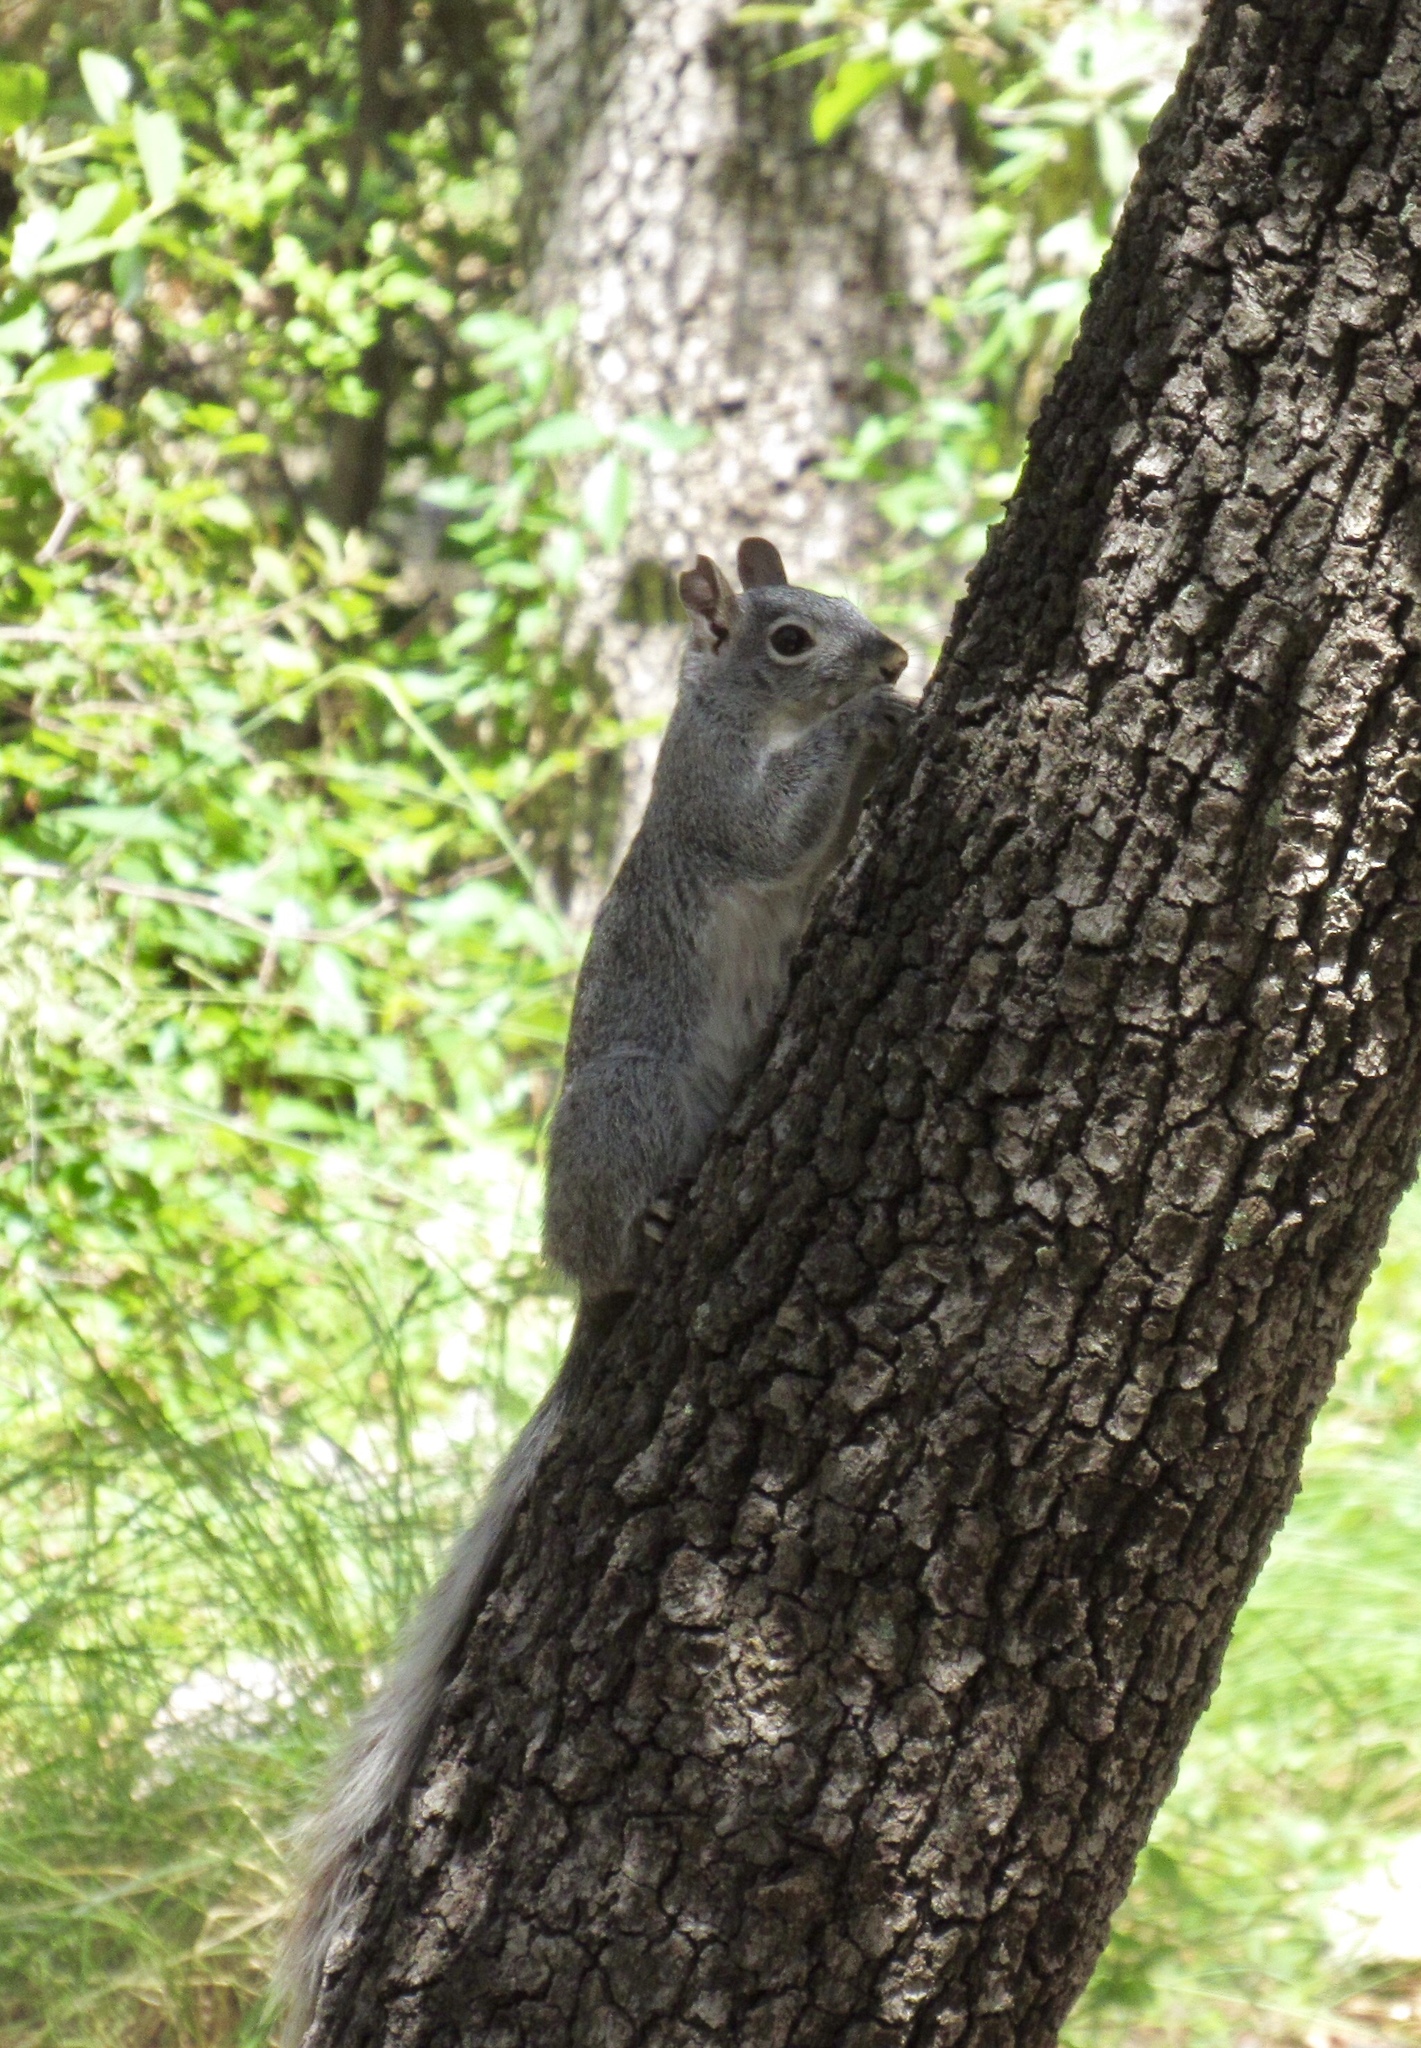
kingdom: Animalia
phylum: Chordata
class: Mammalia
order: Rodentia
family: Sciuridae
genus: Sciurus
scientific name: Sciurus arizonensis
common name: Arizona gray squirrel
